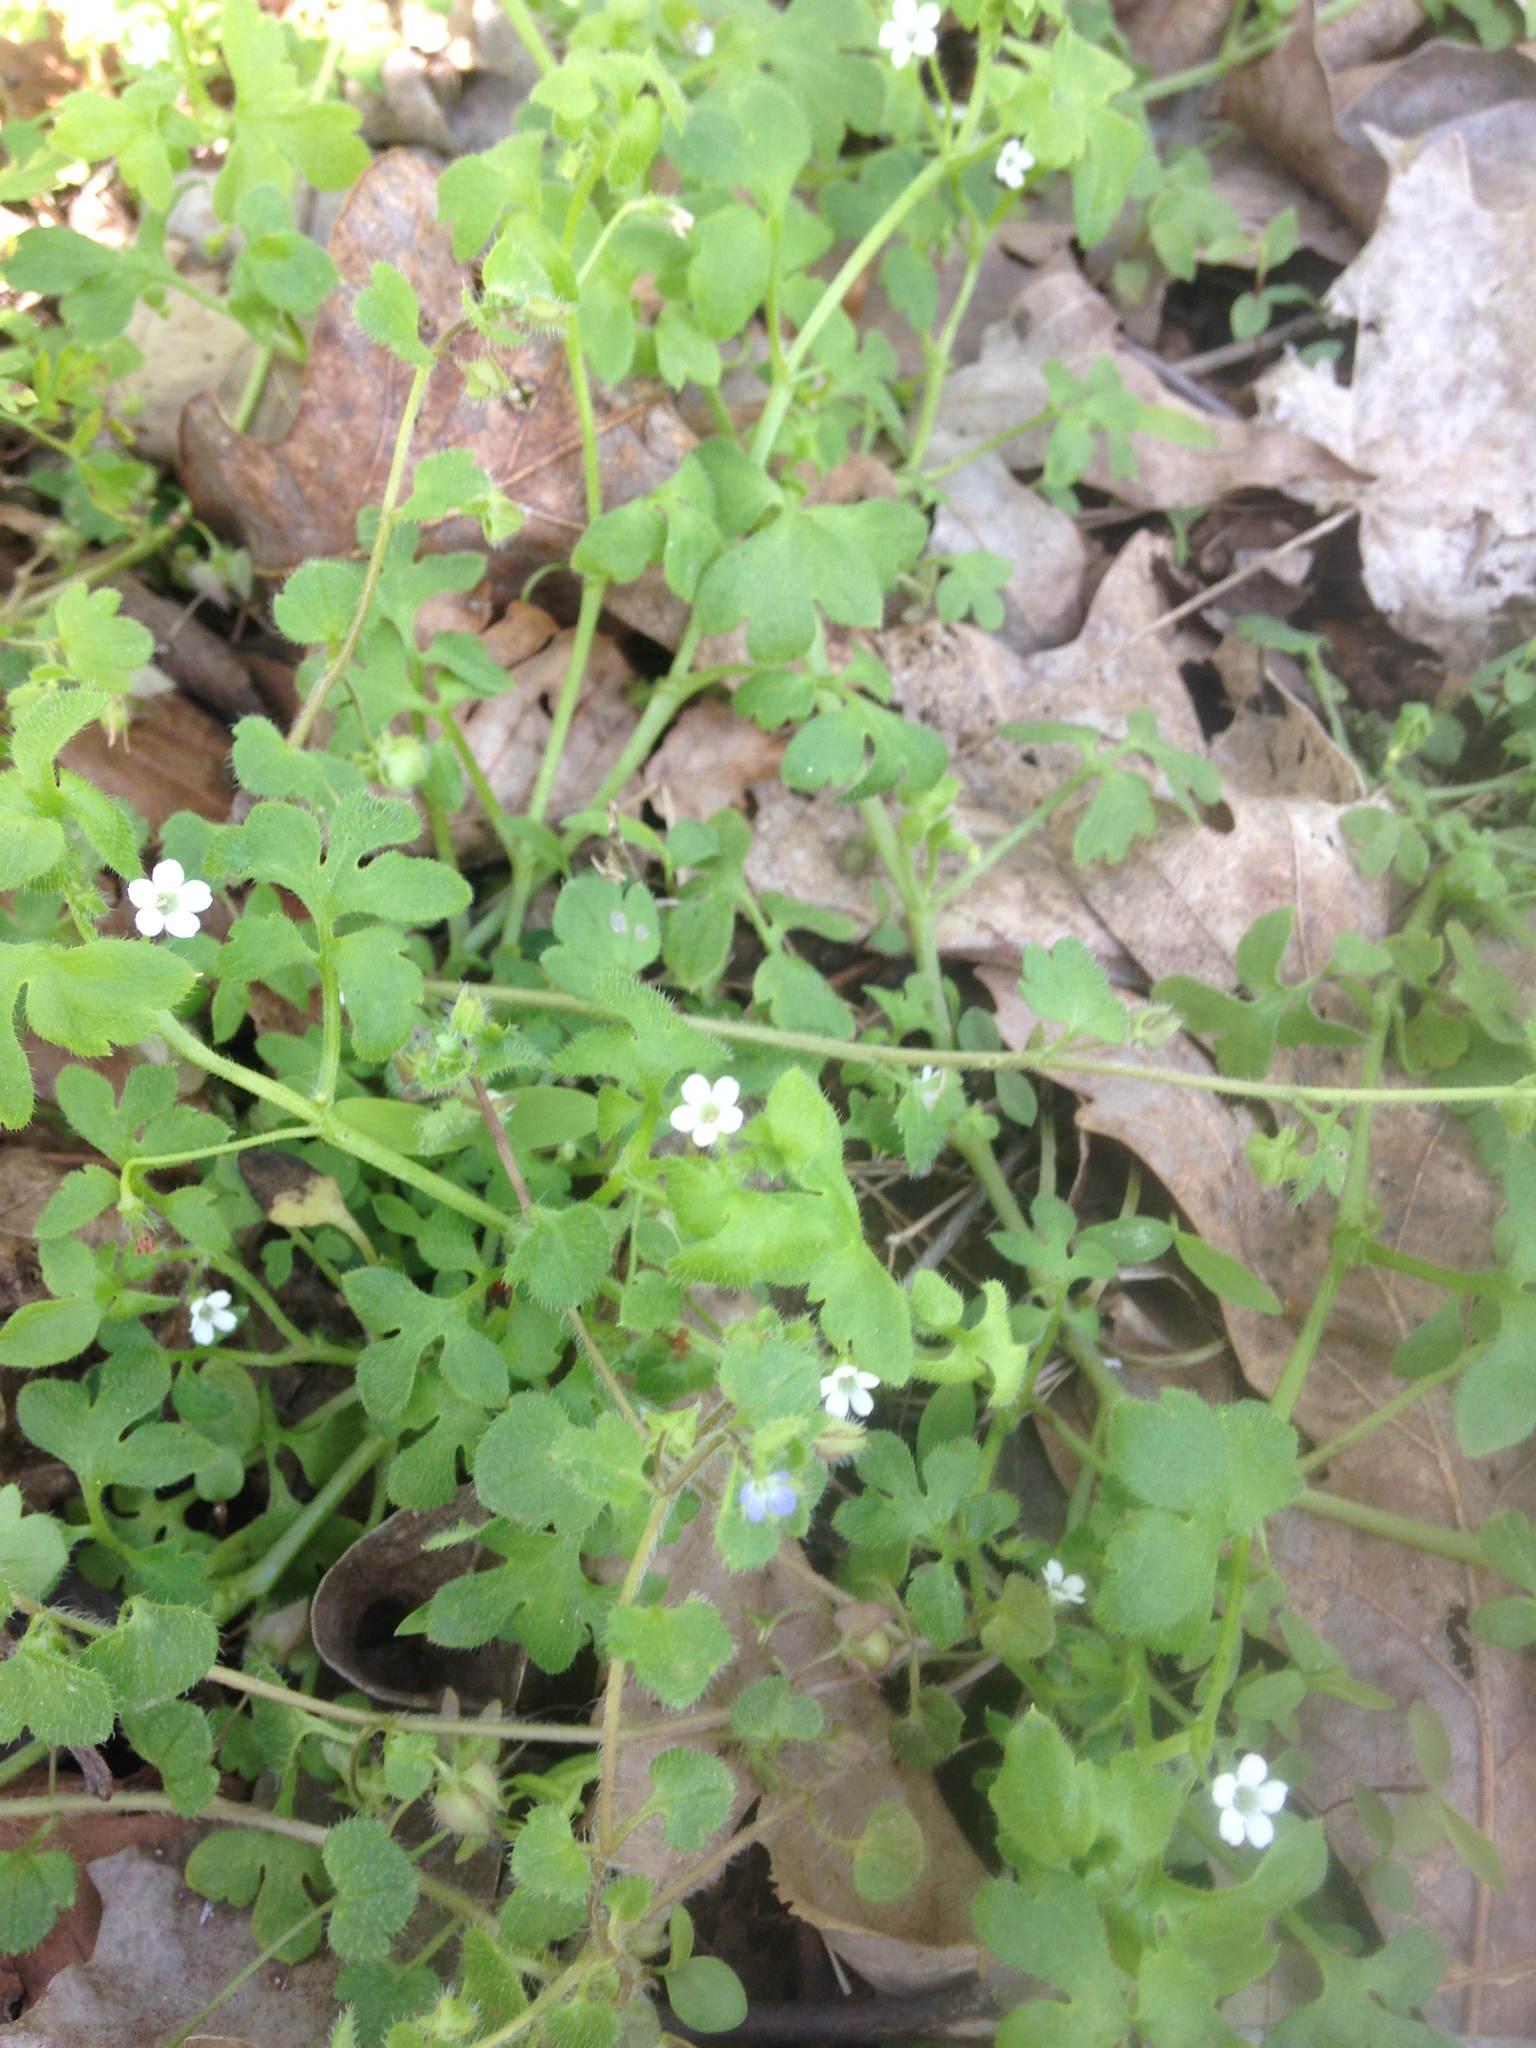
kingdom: Plantae
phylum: Tracheophyta
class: Magnoliopsida
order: Boraginales
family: Hydrophyllaceae
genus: Nemophila
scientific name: Nemophila aphylla
